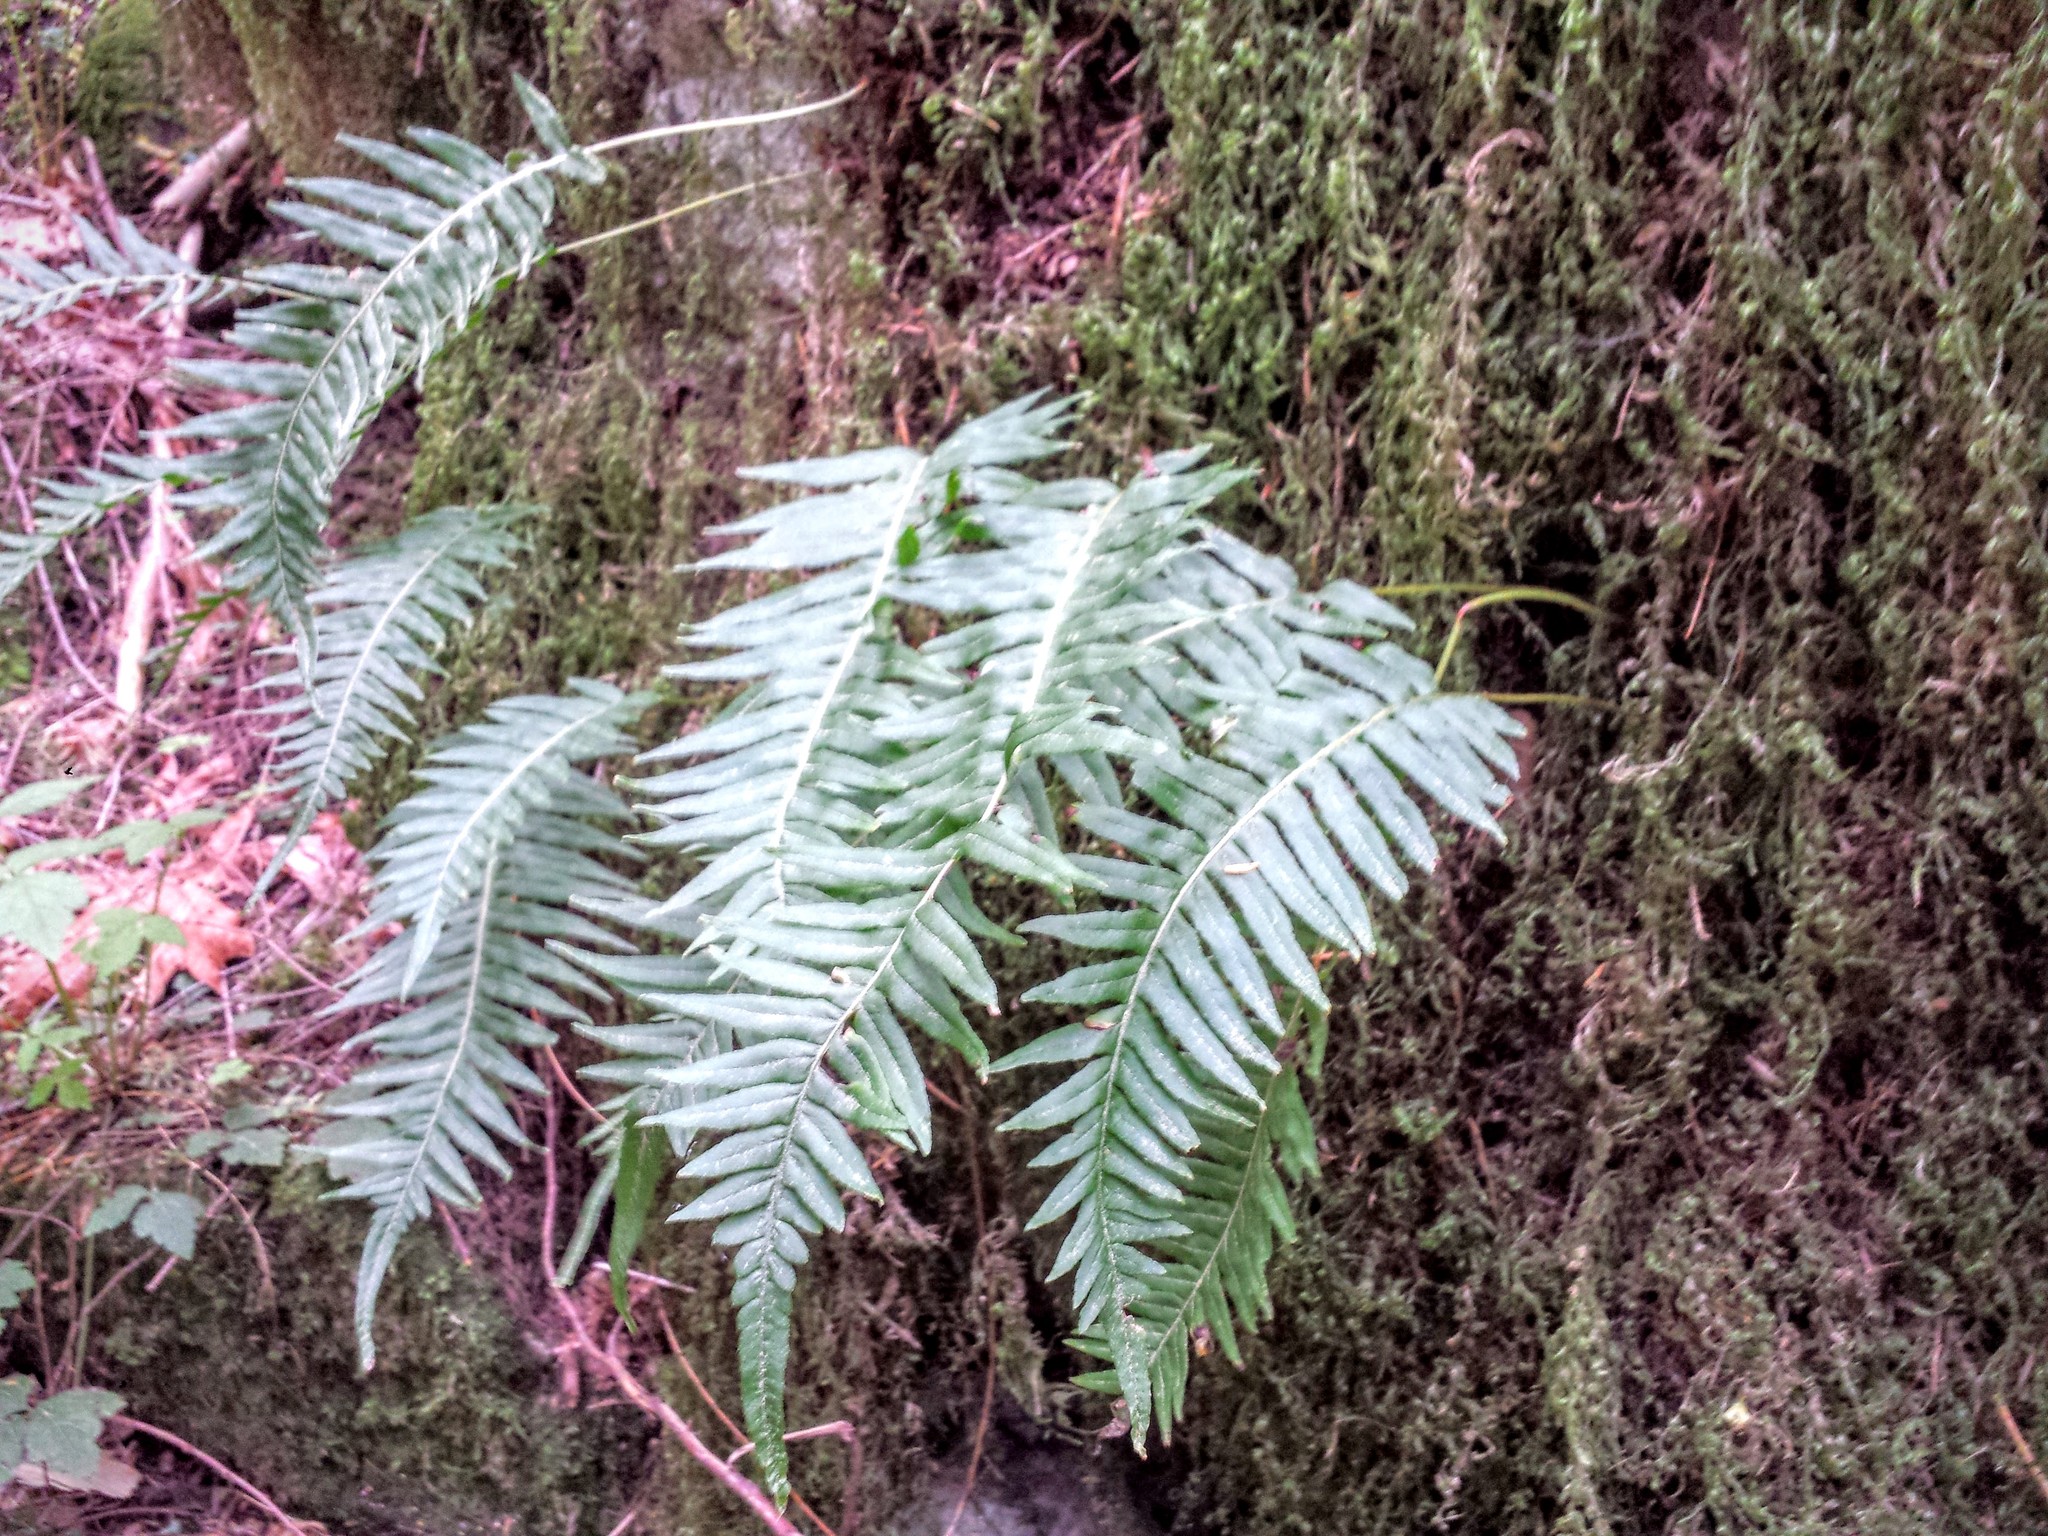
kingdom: Plantae
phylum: Tracheophyta
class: Polypodiopsida
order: Polypodiales
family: Polypodiaceae
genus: Polypodium
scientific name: Polypodium glycyrrhiza
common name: Licorice fern
